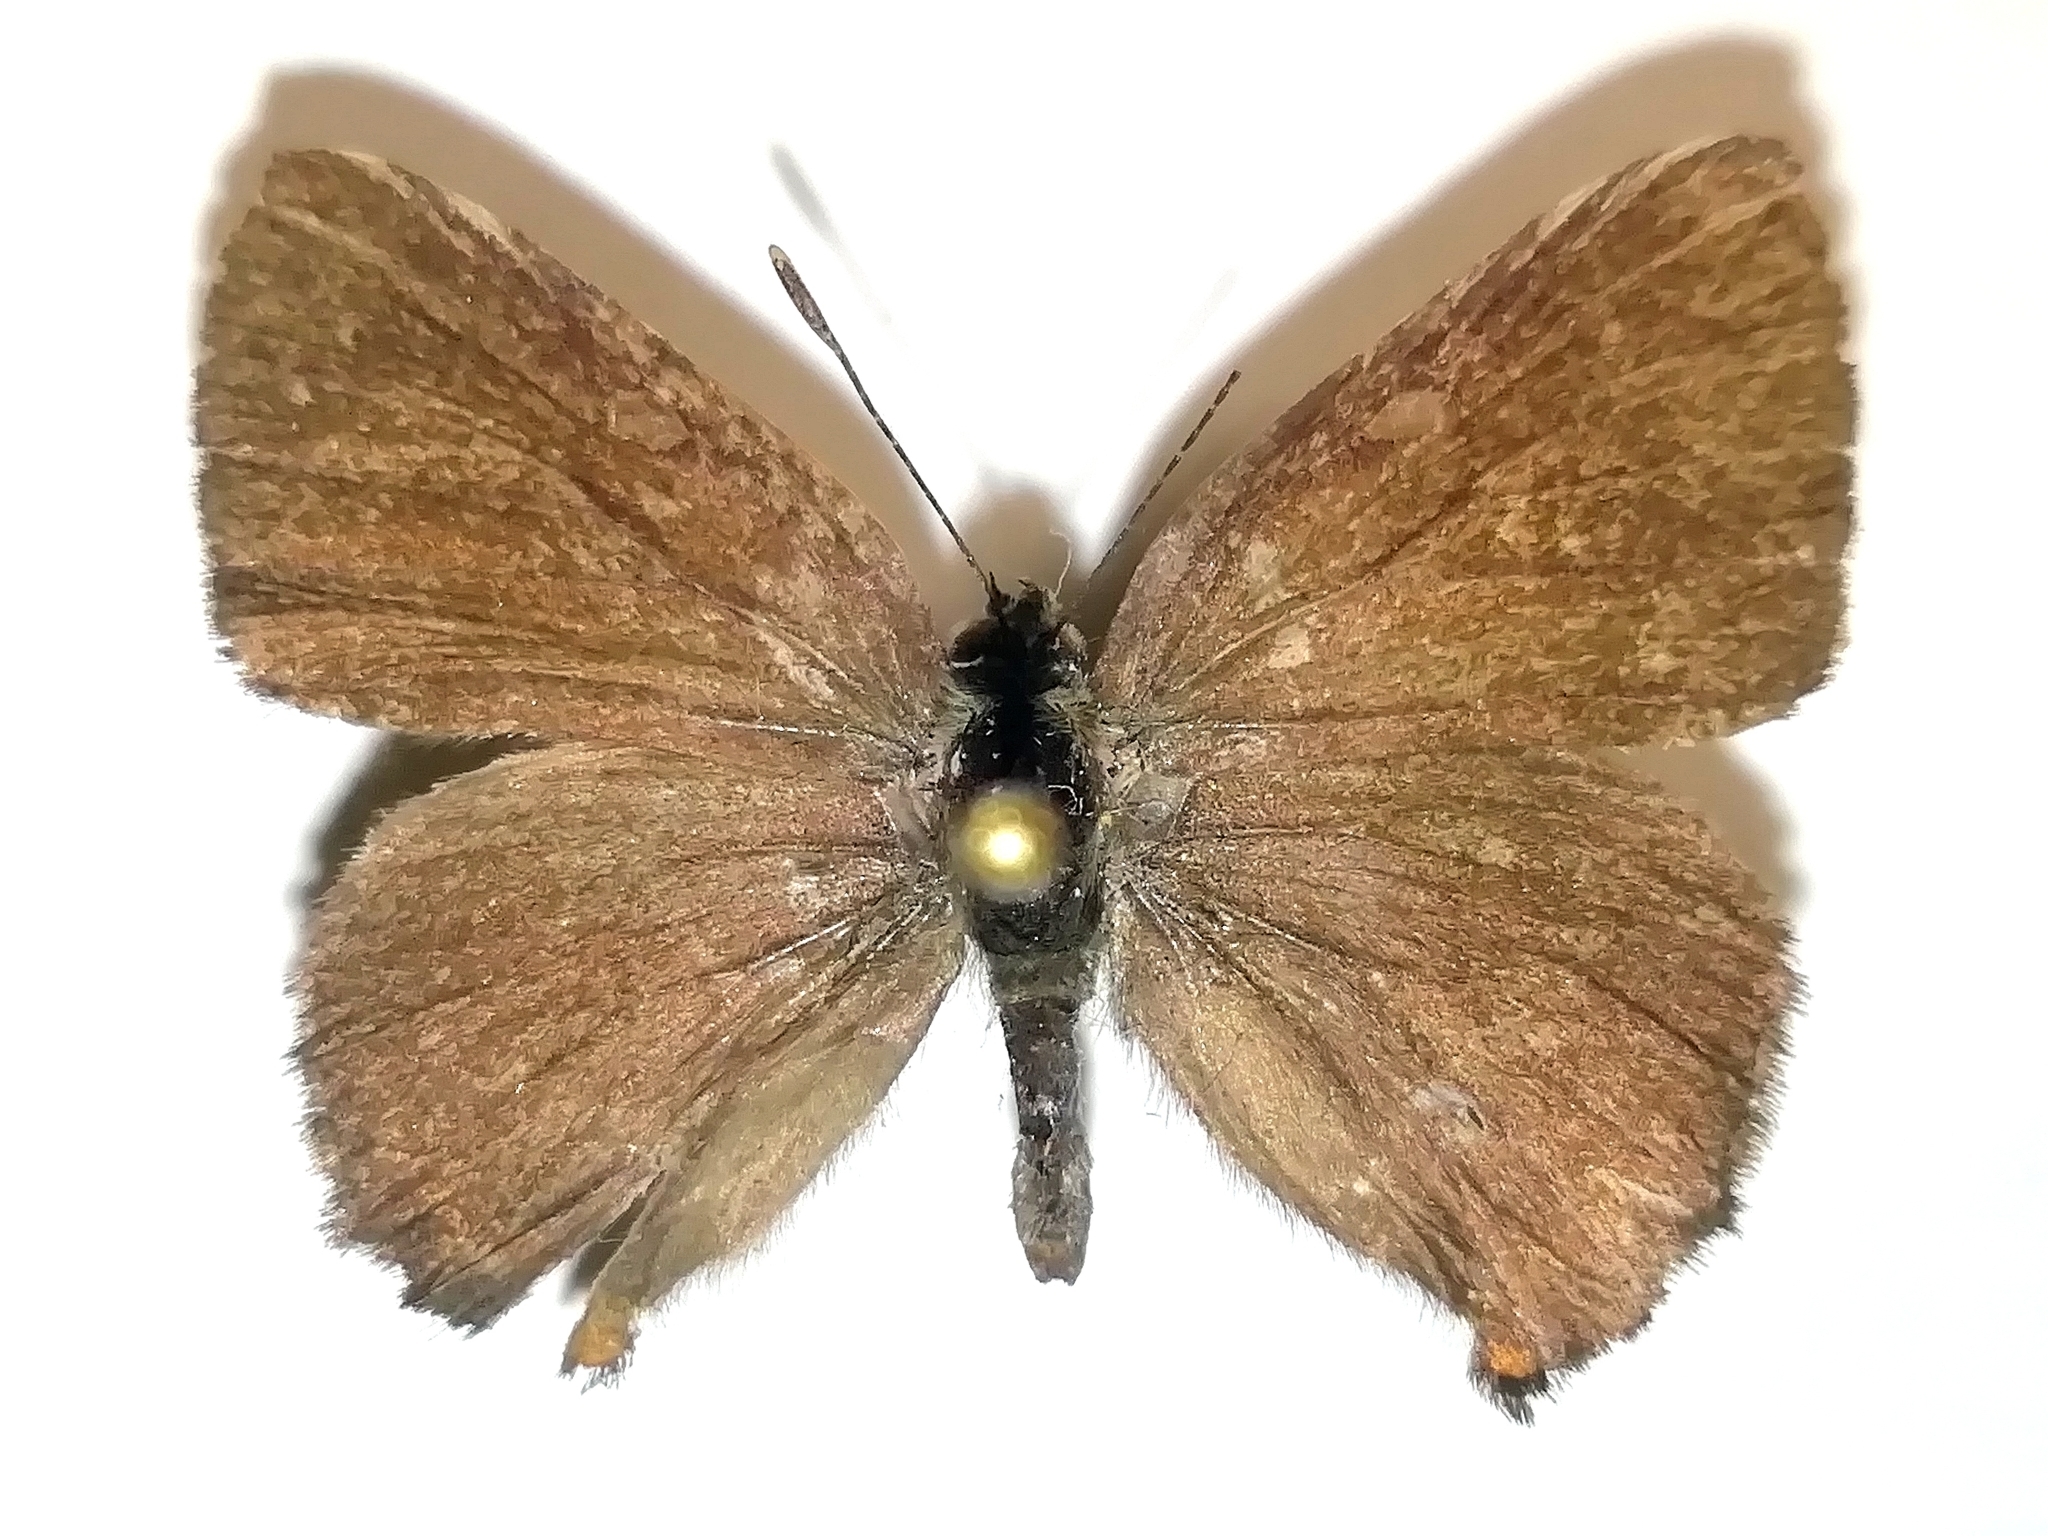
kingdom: Animalia
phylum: Arthropoda
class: Insecta
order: Lepidoptera
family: Lycaenidae
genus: Satyrium
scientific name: Satyrium w-album
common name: White-letter hairstreak
